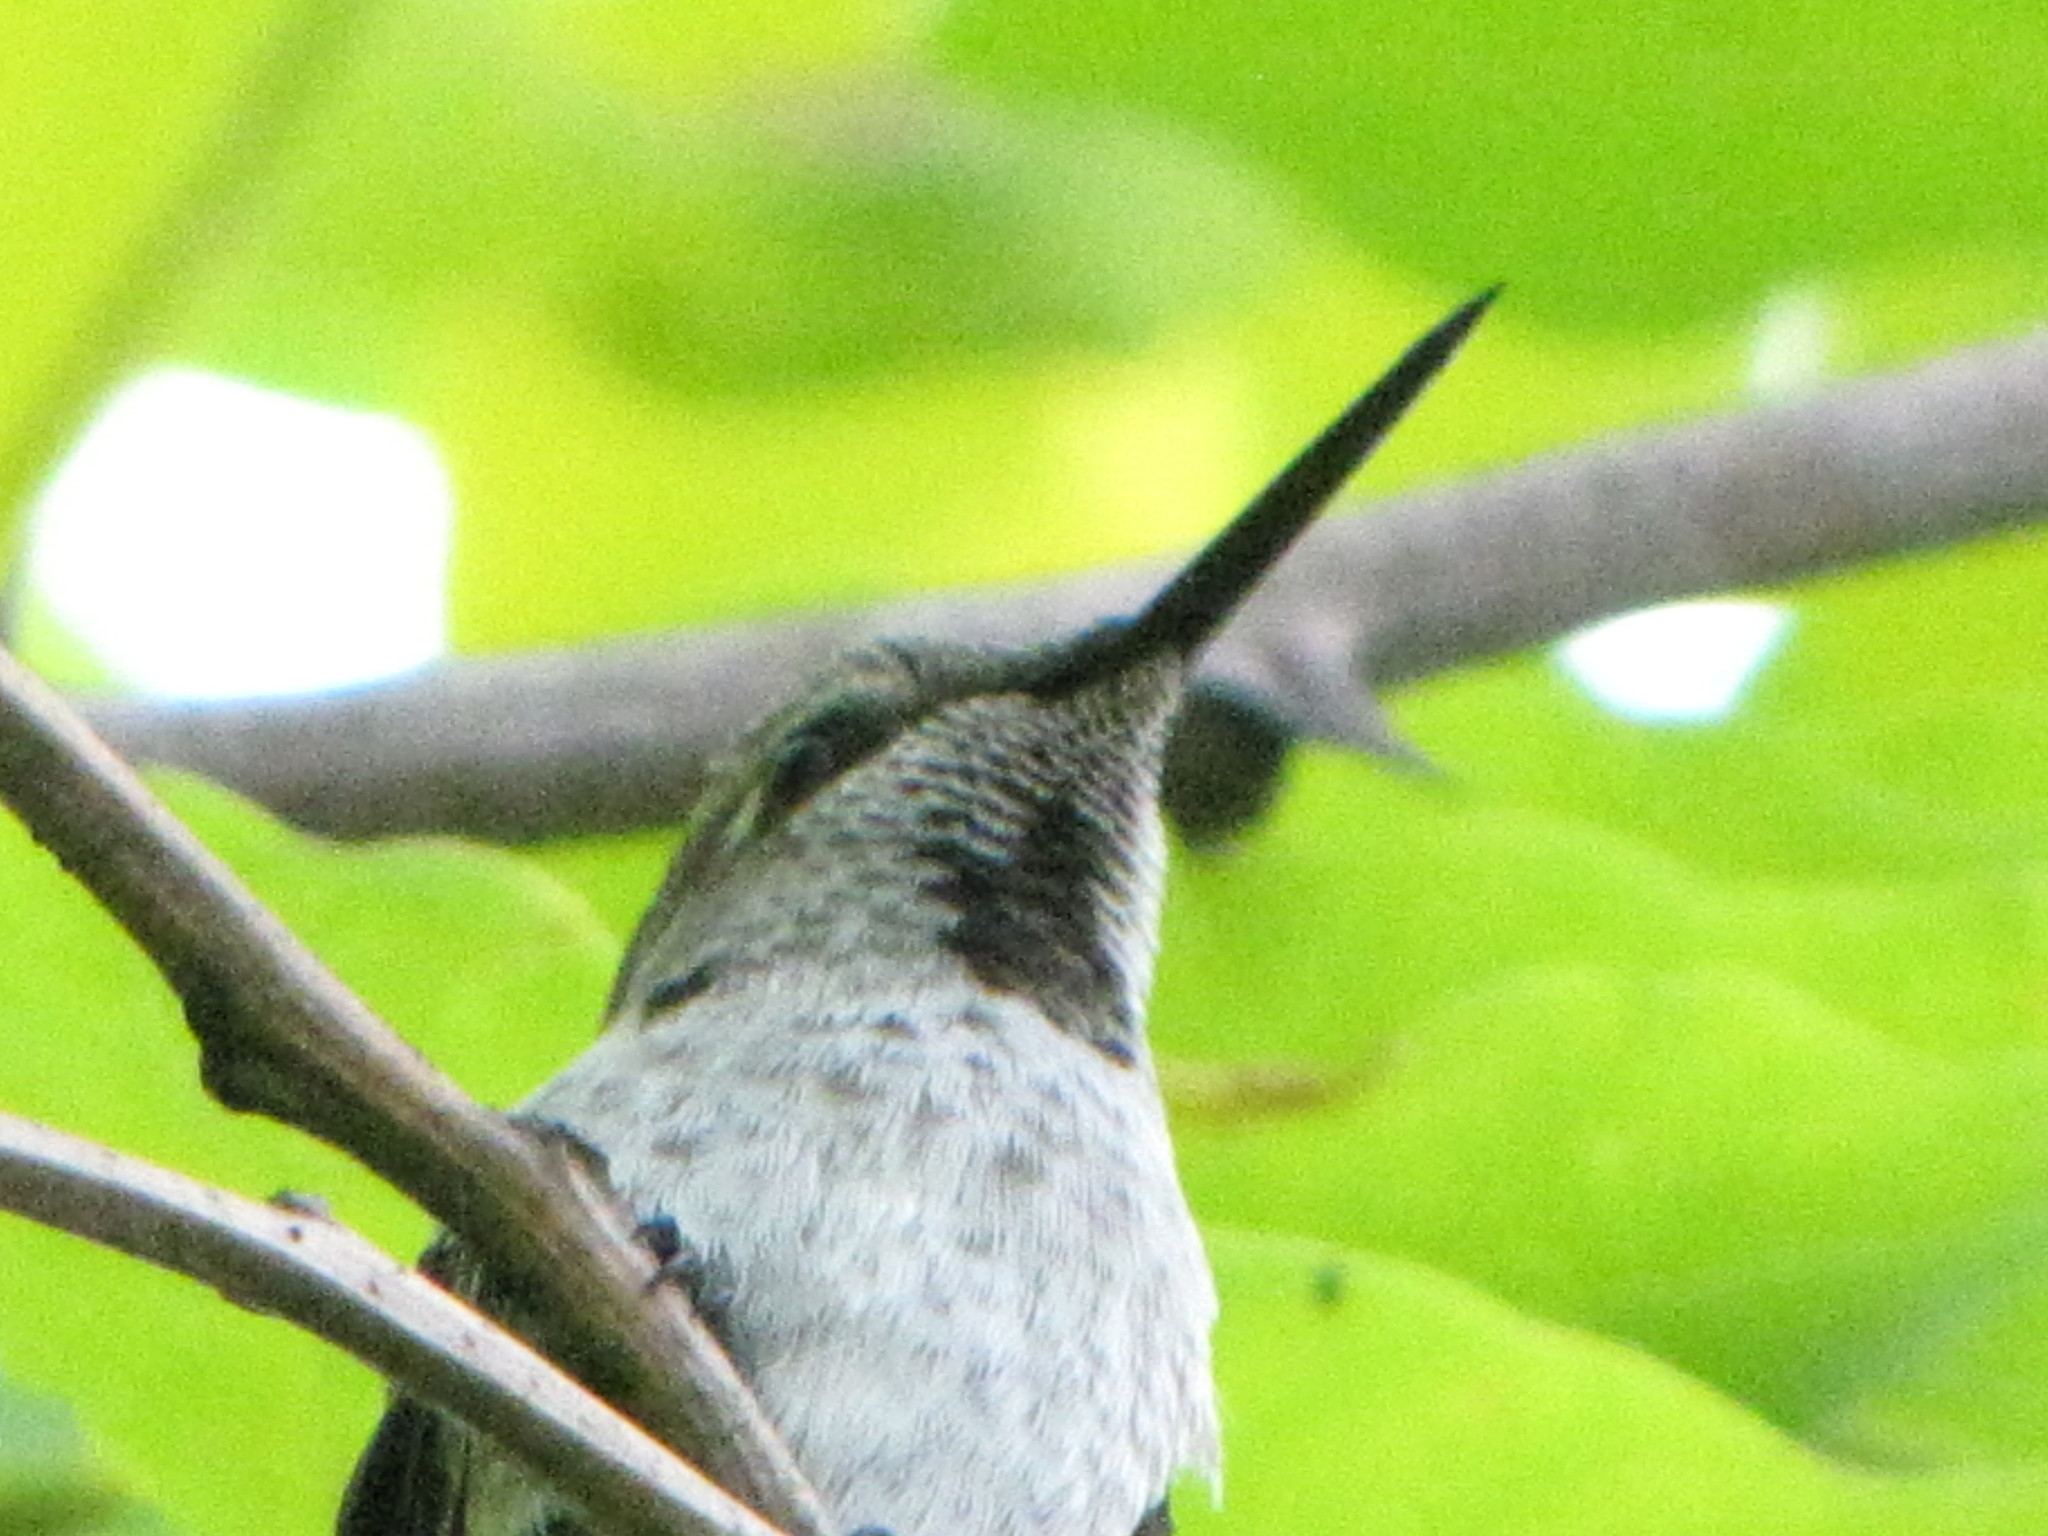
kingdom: Animalia
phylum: Chordata
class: Aves
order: Apodiformes
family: Trochilidae
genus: Calypte
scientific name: Calypte anna
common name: Anna's hummingbird
